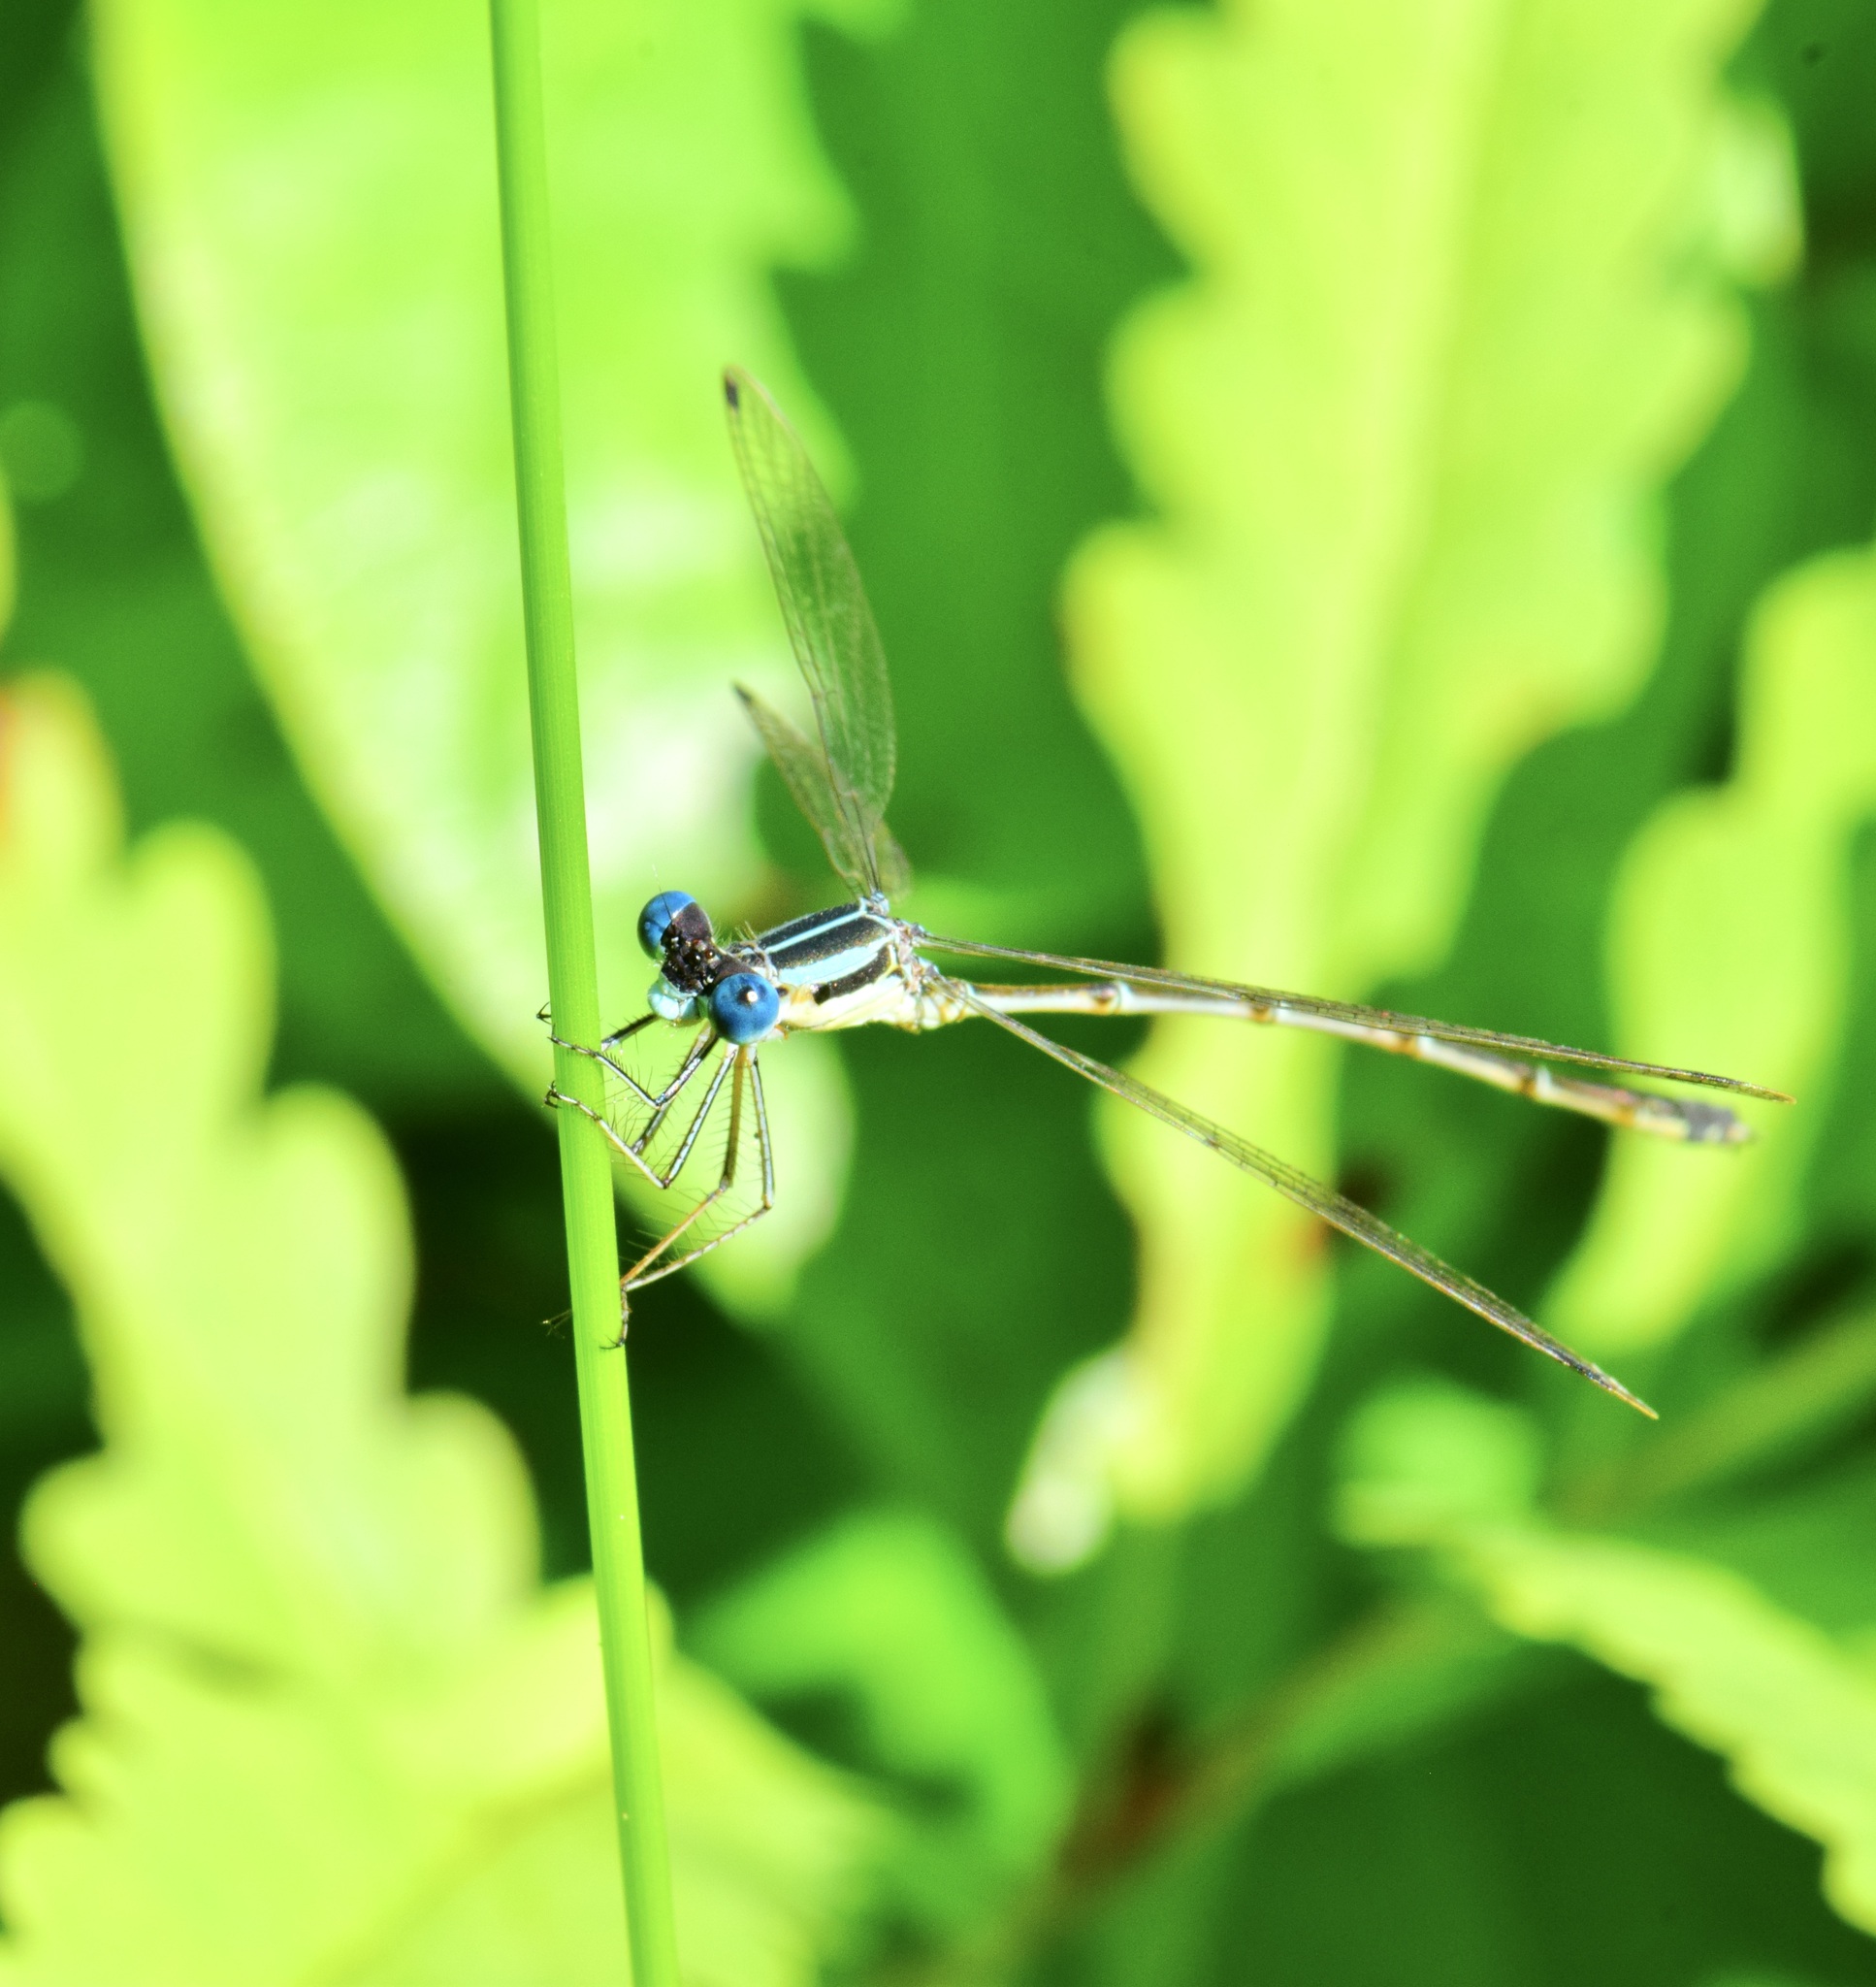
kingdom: Animalia
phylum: Arthropoda
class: Insecta
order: Odonata
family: Lestidae
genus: Lestes
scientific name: Lestes rectangularis
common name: Slender spreadwing
